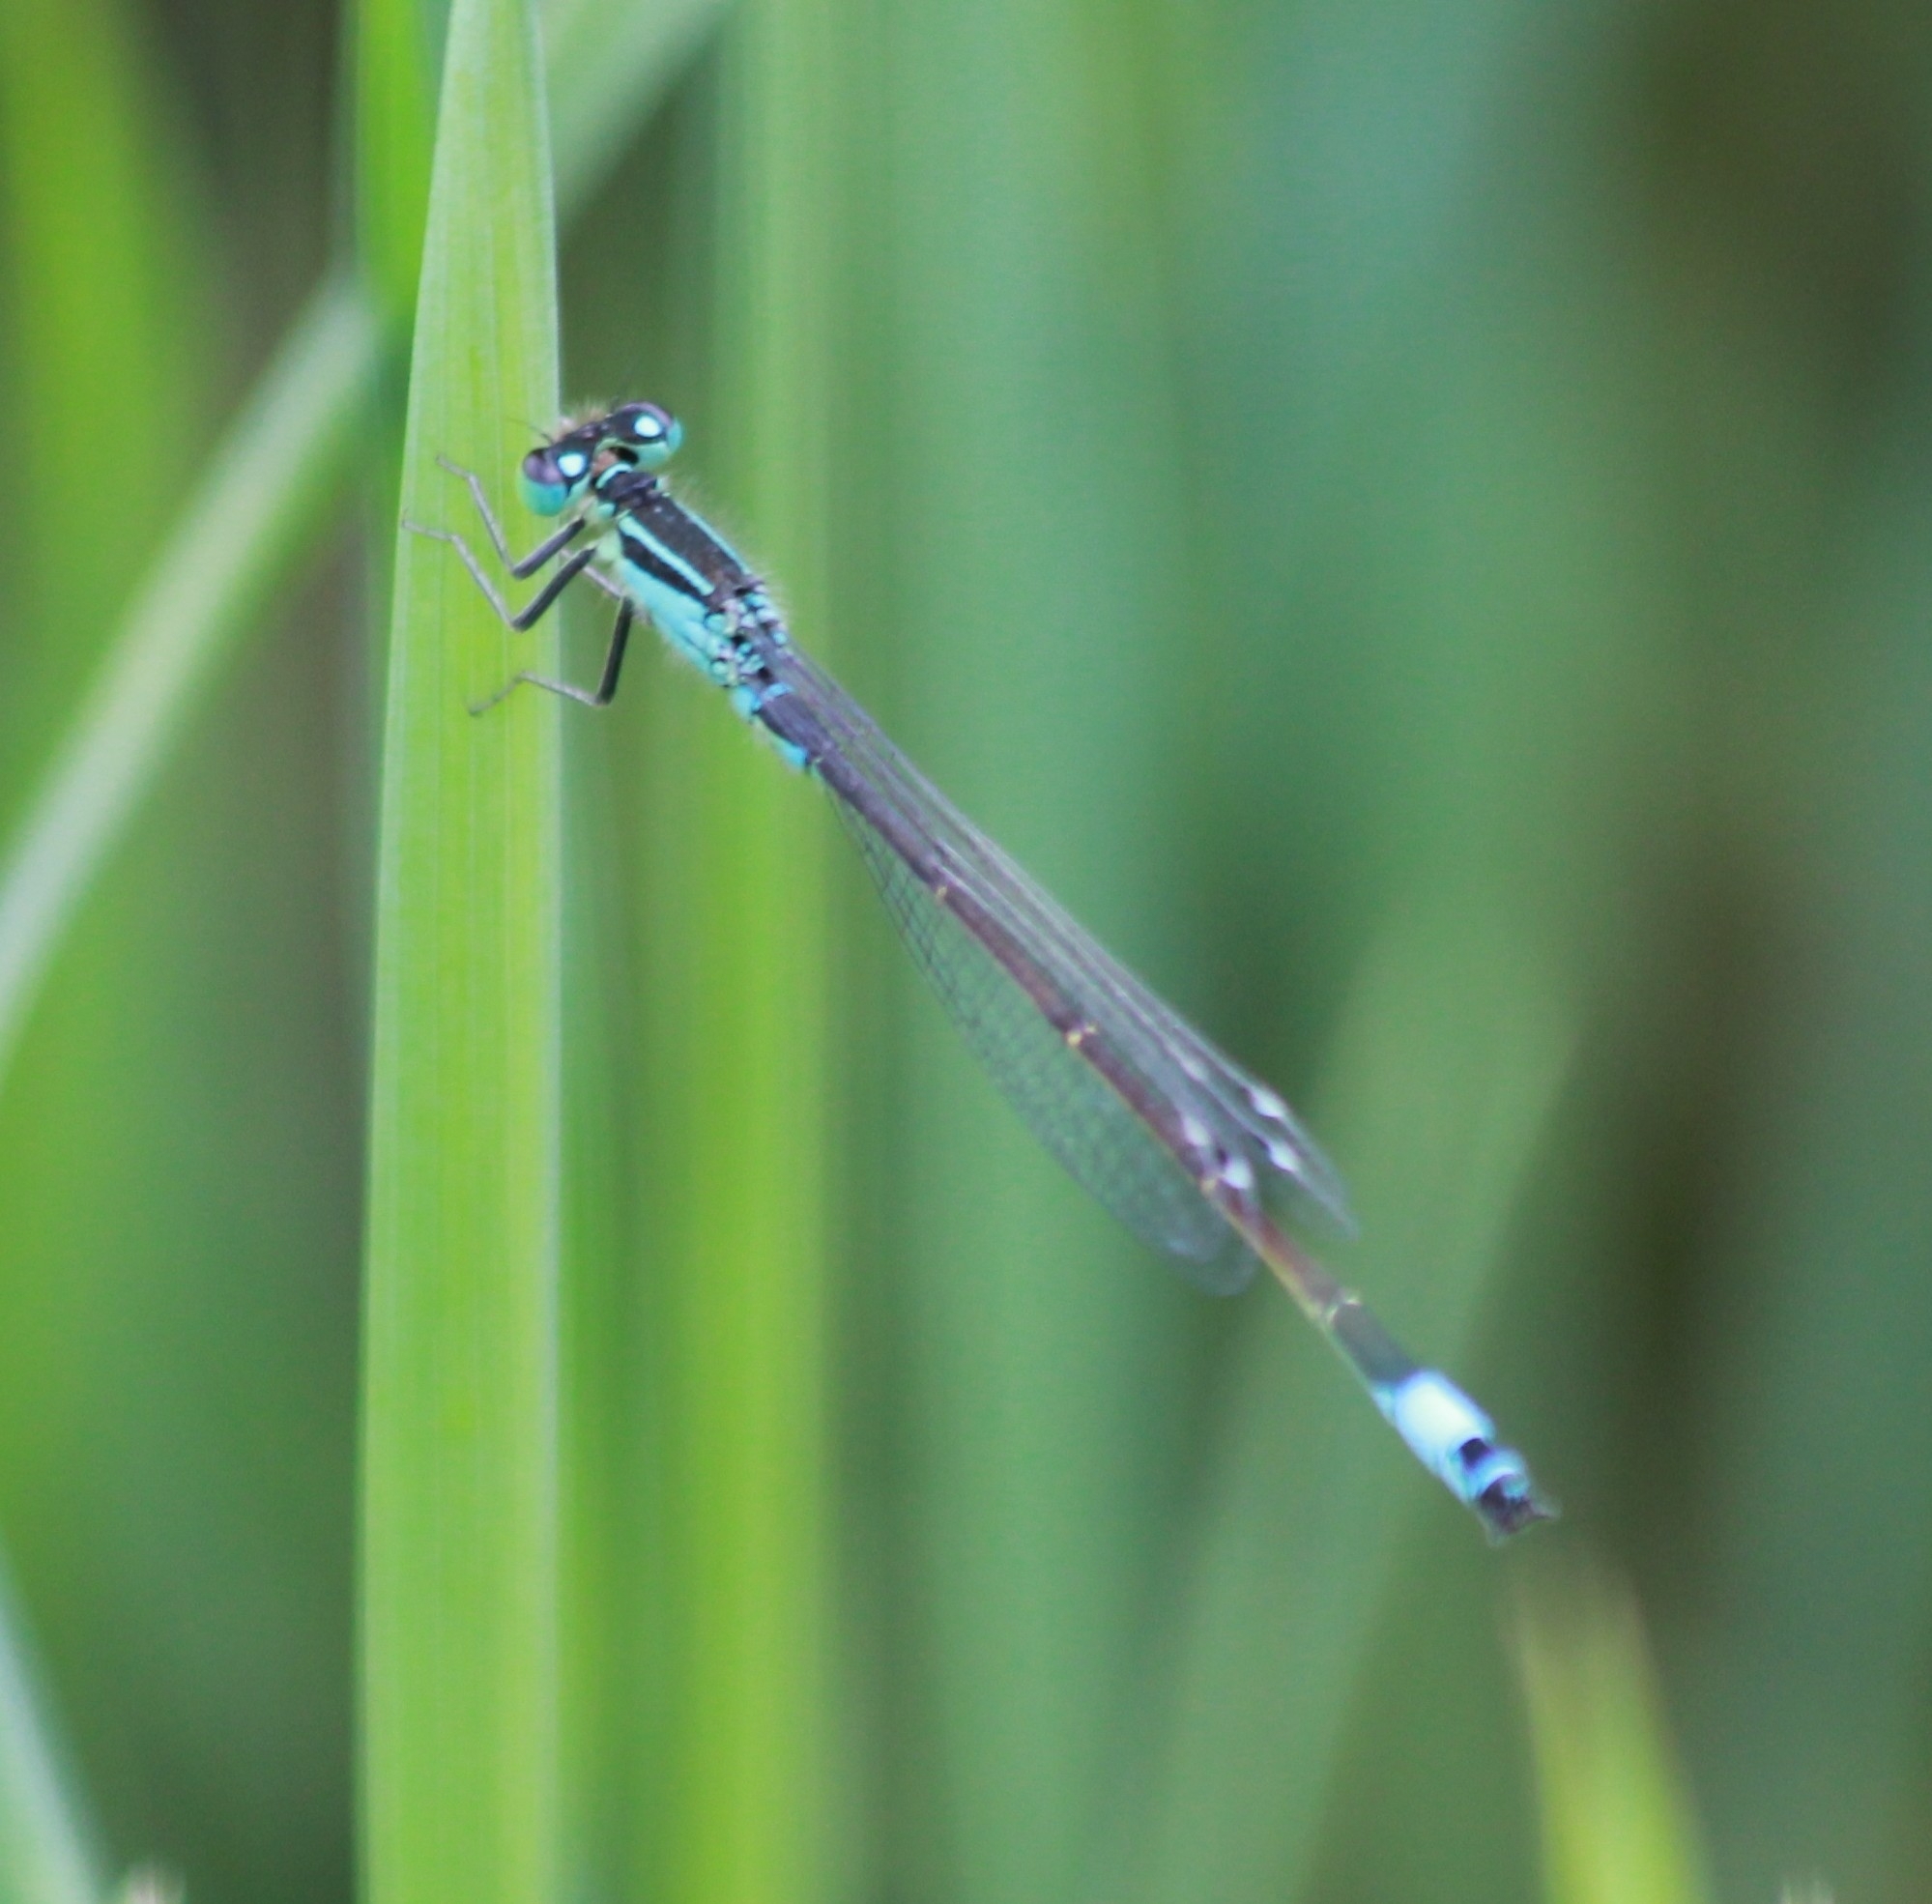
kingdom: Animalia
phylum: Arthropoda
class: Insecta
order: Odonata
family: Coenagrionidae
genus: Ischnura
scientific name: Ischnura elegans
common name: Blue-tailed damselfly
